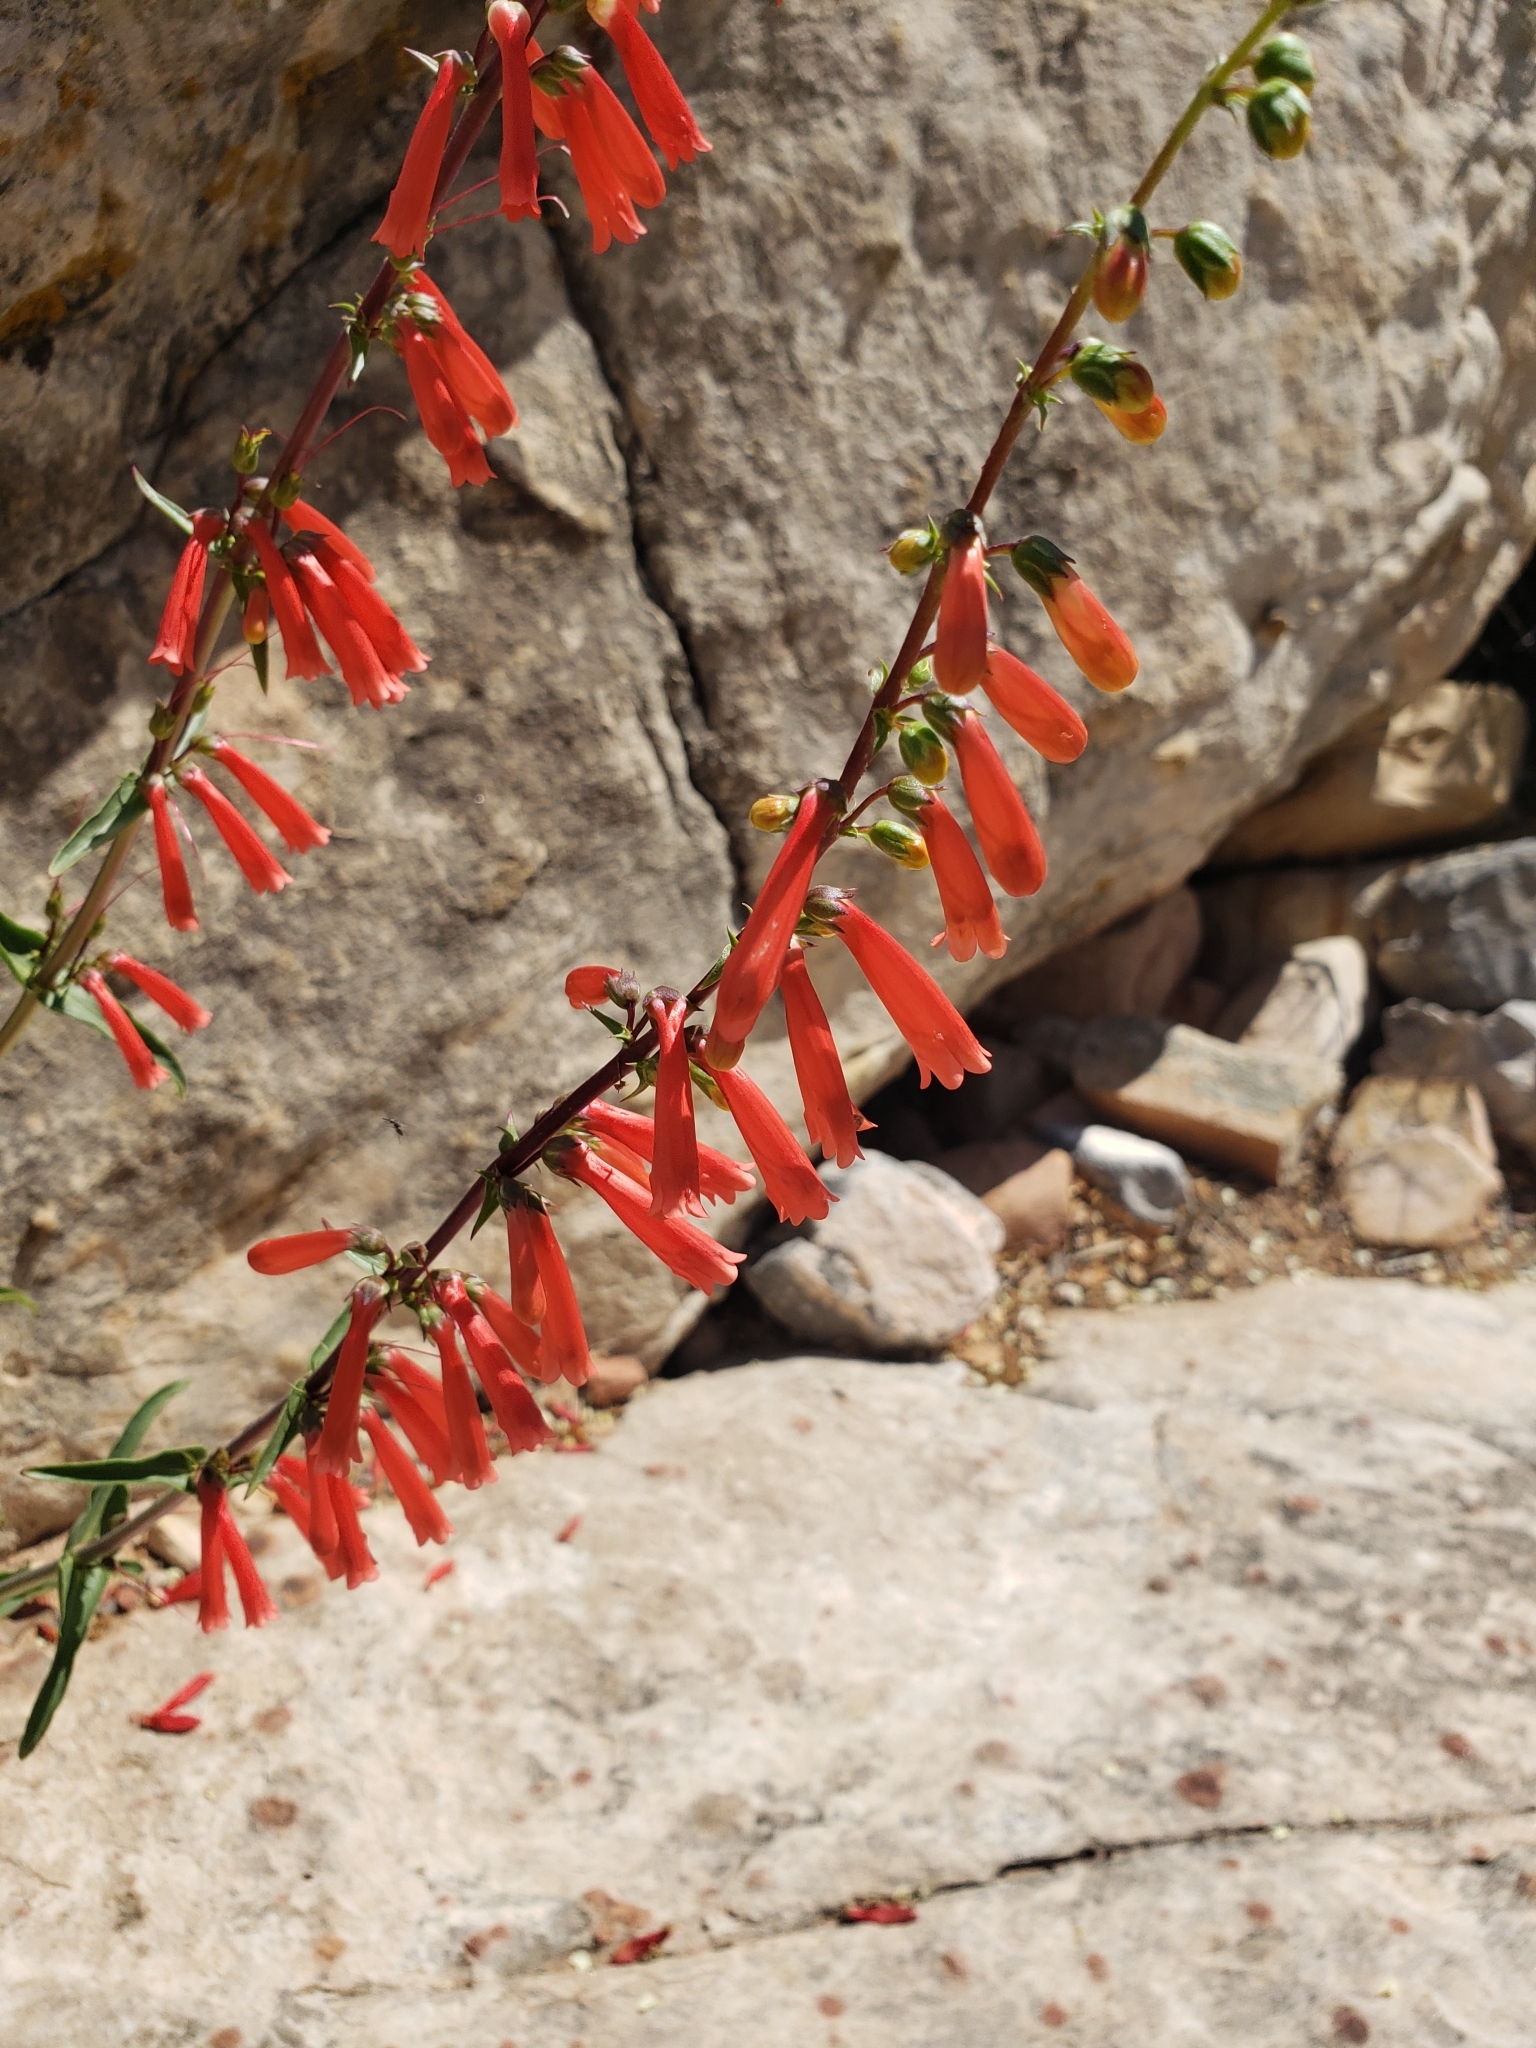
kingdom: Plantae
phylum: Tracheophyta
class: Magnoliopsida
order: Lamiales
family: Plantaginaceae
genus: Penstemon
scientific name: Penstemon eatonii
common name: Eaton's penstemon
